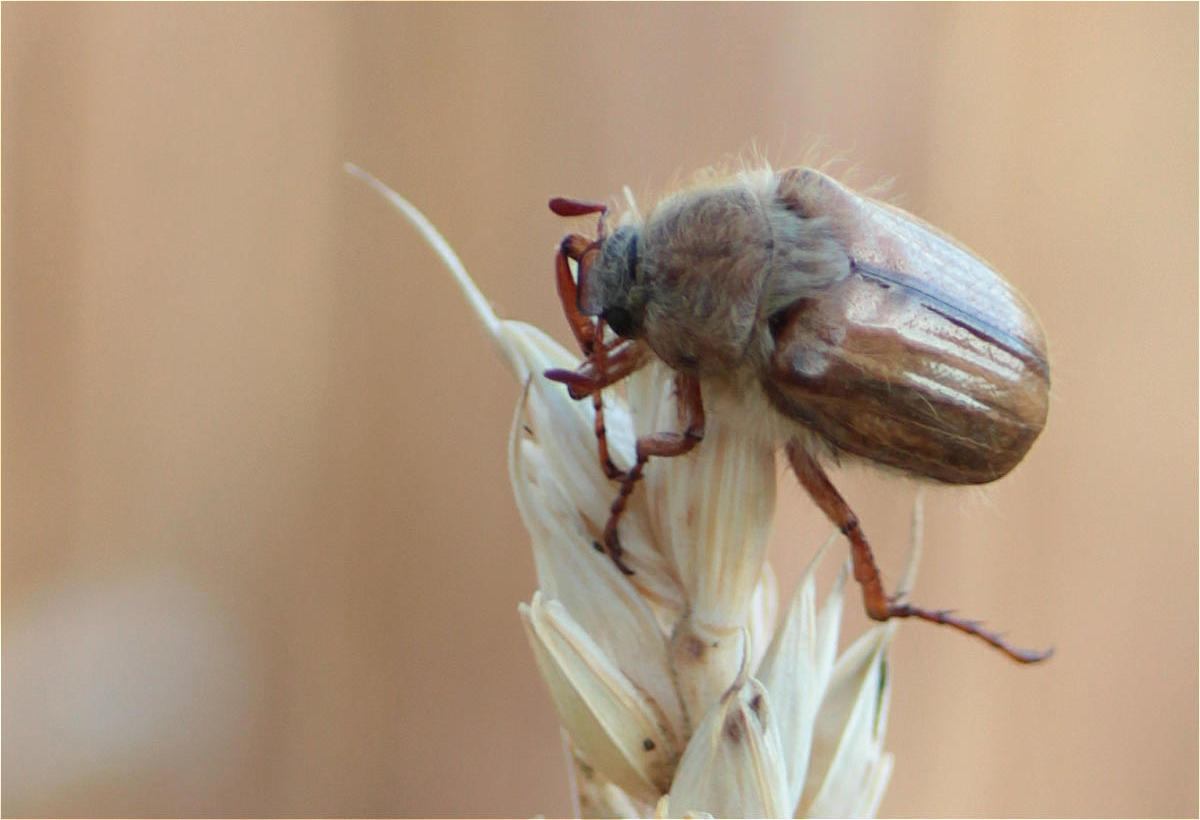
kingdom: Animalia
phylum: Arthropoda
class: Insecta
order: Coleoptera
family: Scarabaeidae
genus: Amphimallon
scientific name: Amphimallon solstitiale
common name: Summer chafer
